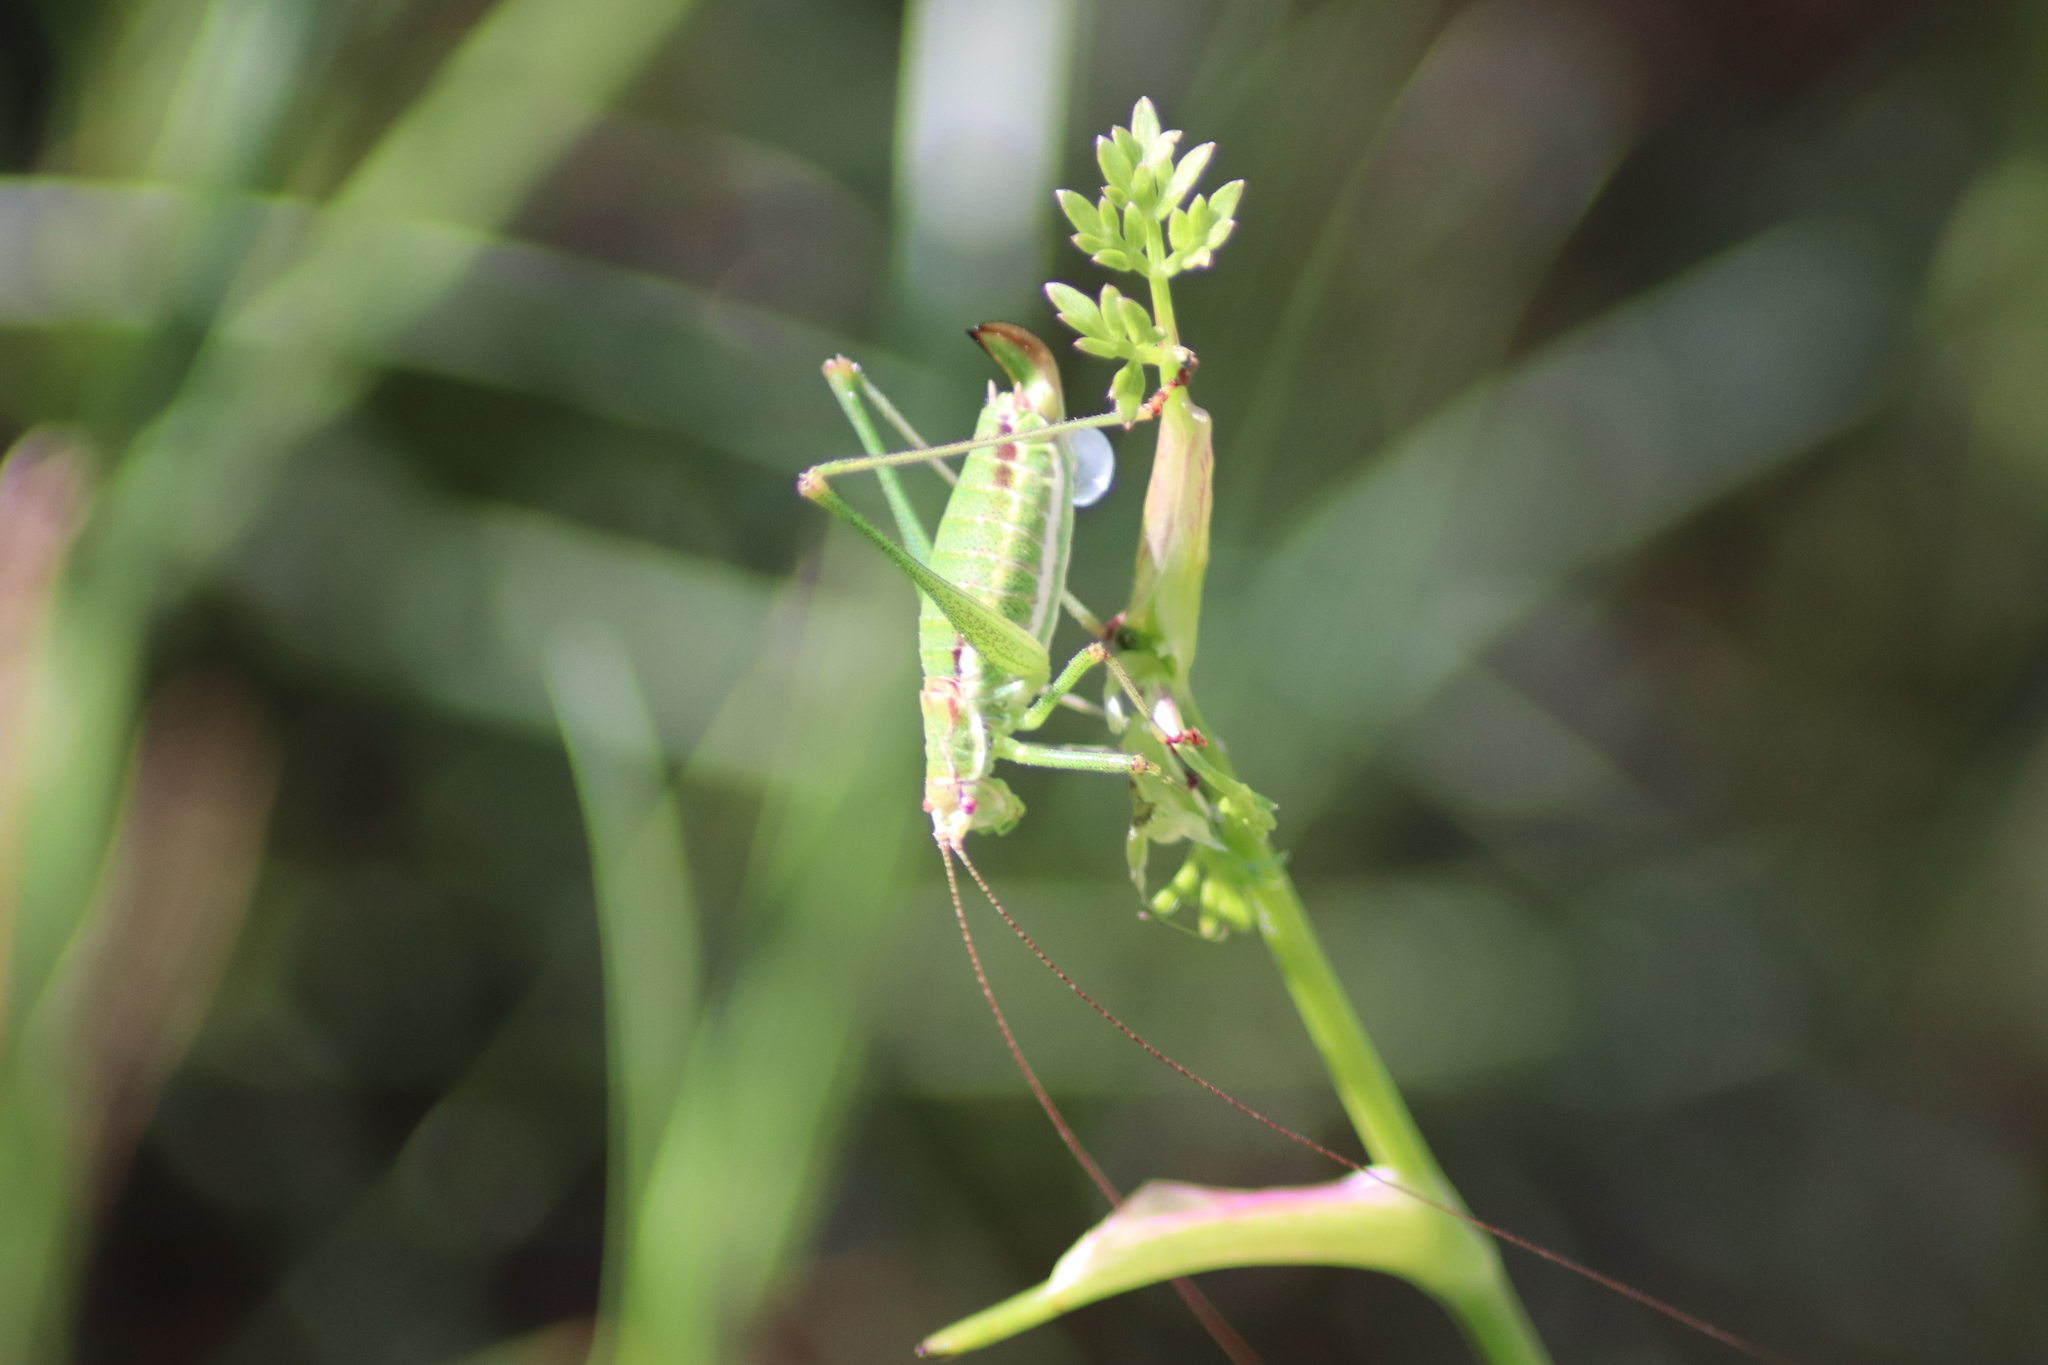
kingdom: Animalia
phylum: Arthropoda
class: Insecta
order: Orthoptera
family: Tettigoniidae
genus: Leptophyes
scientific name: Leptophyes albovittata
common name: Striped bush-cricket
